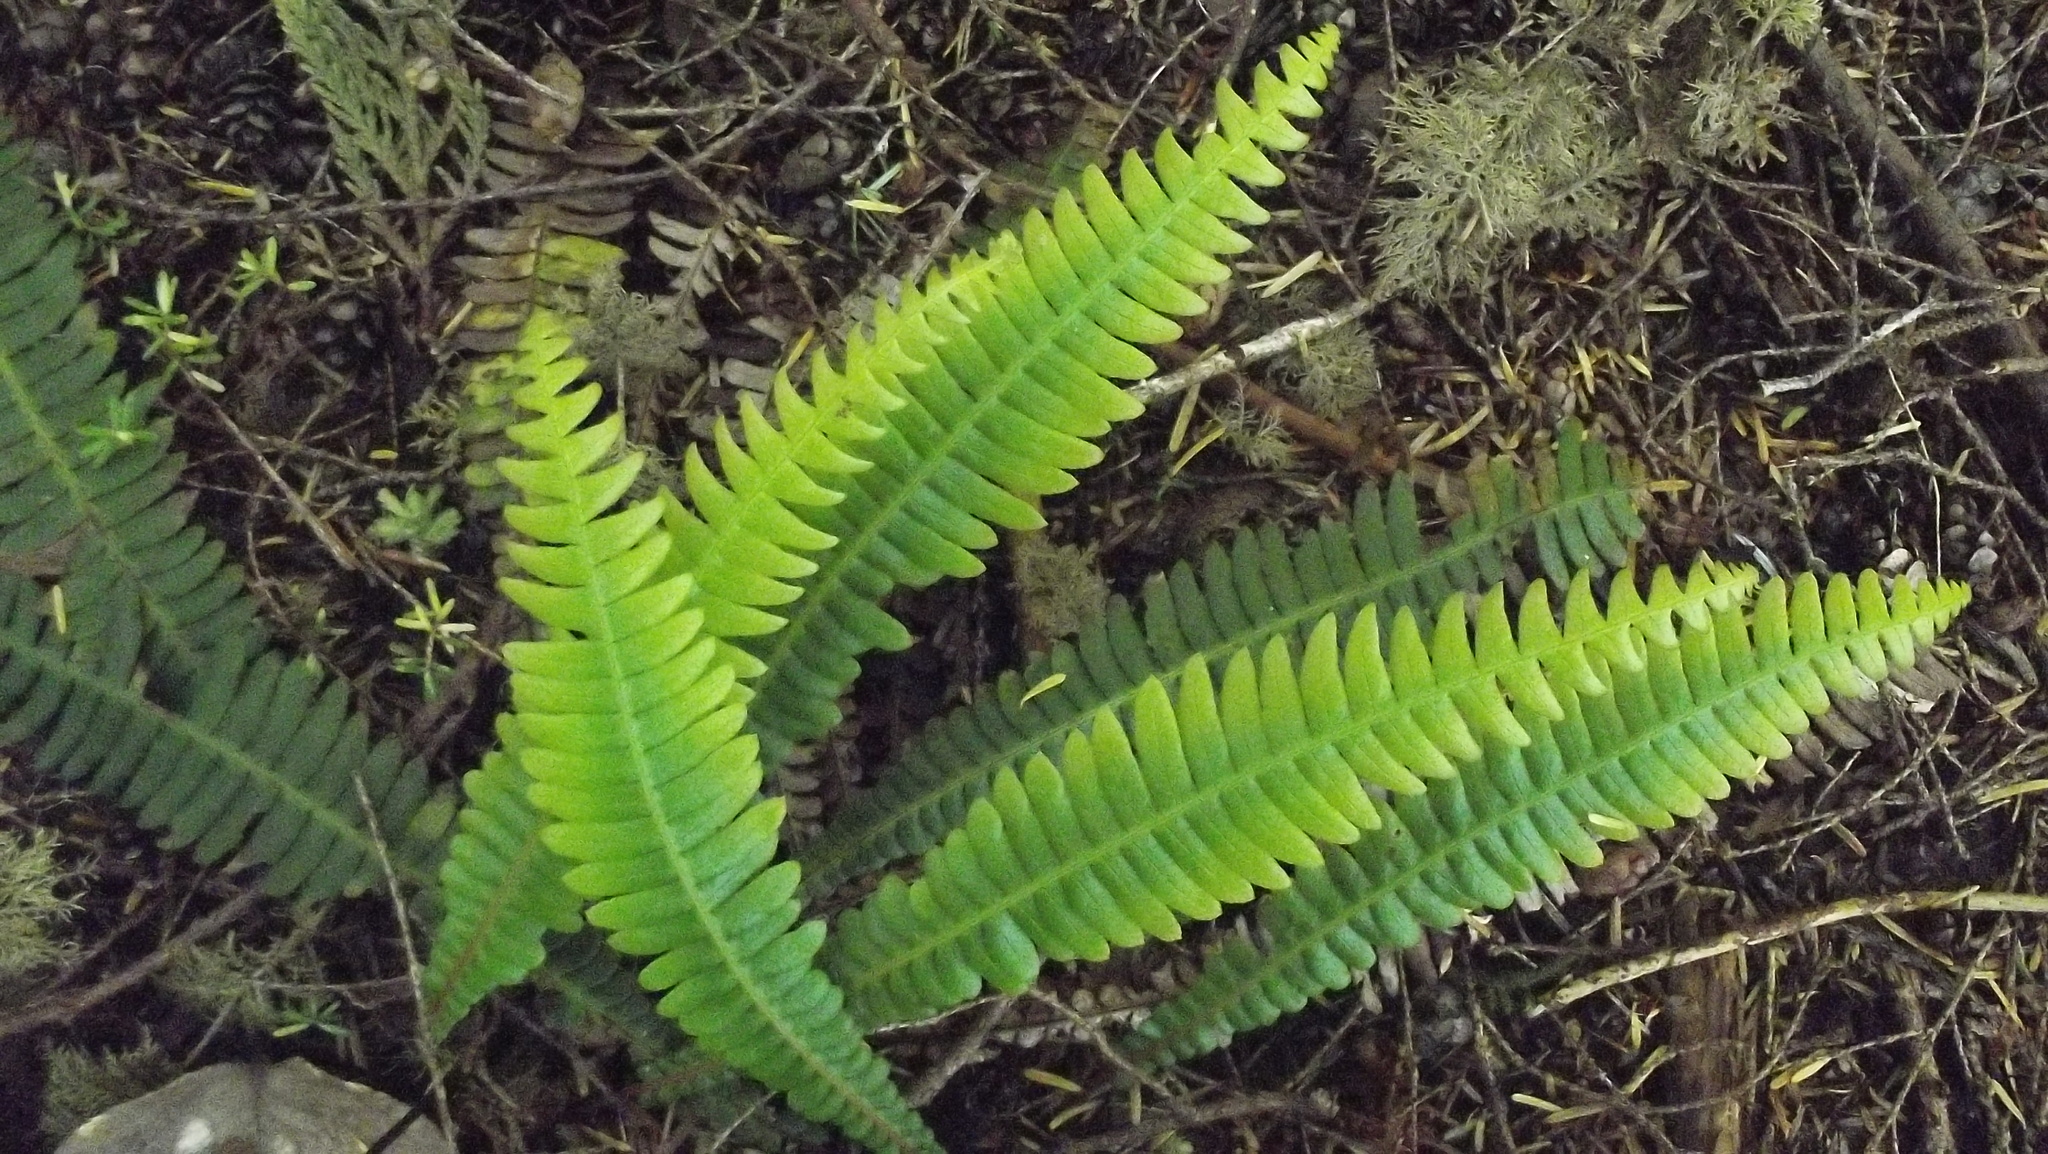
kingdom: Plantae
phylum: Tracheophyta
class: Polypodiopsida
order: Polypodiales
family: Blechnaceae
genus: Struthiopteris
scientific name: Struthiopteris spicant
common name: Deer fern
